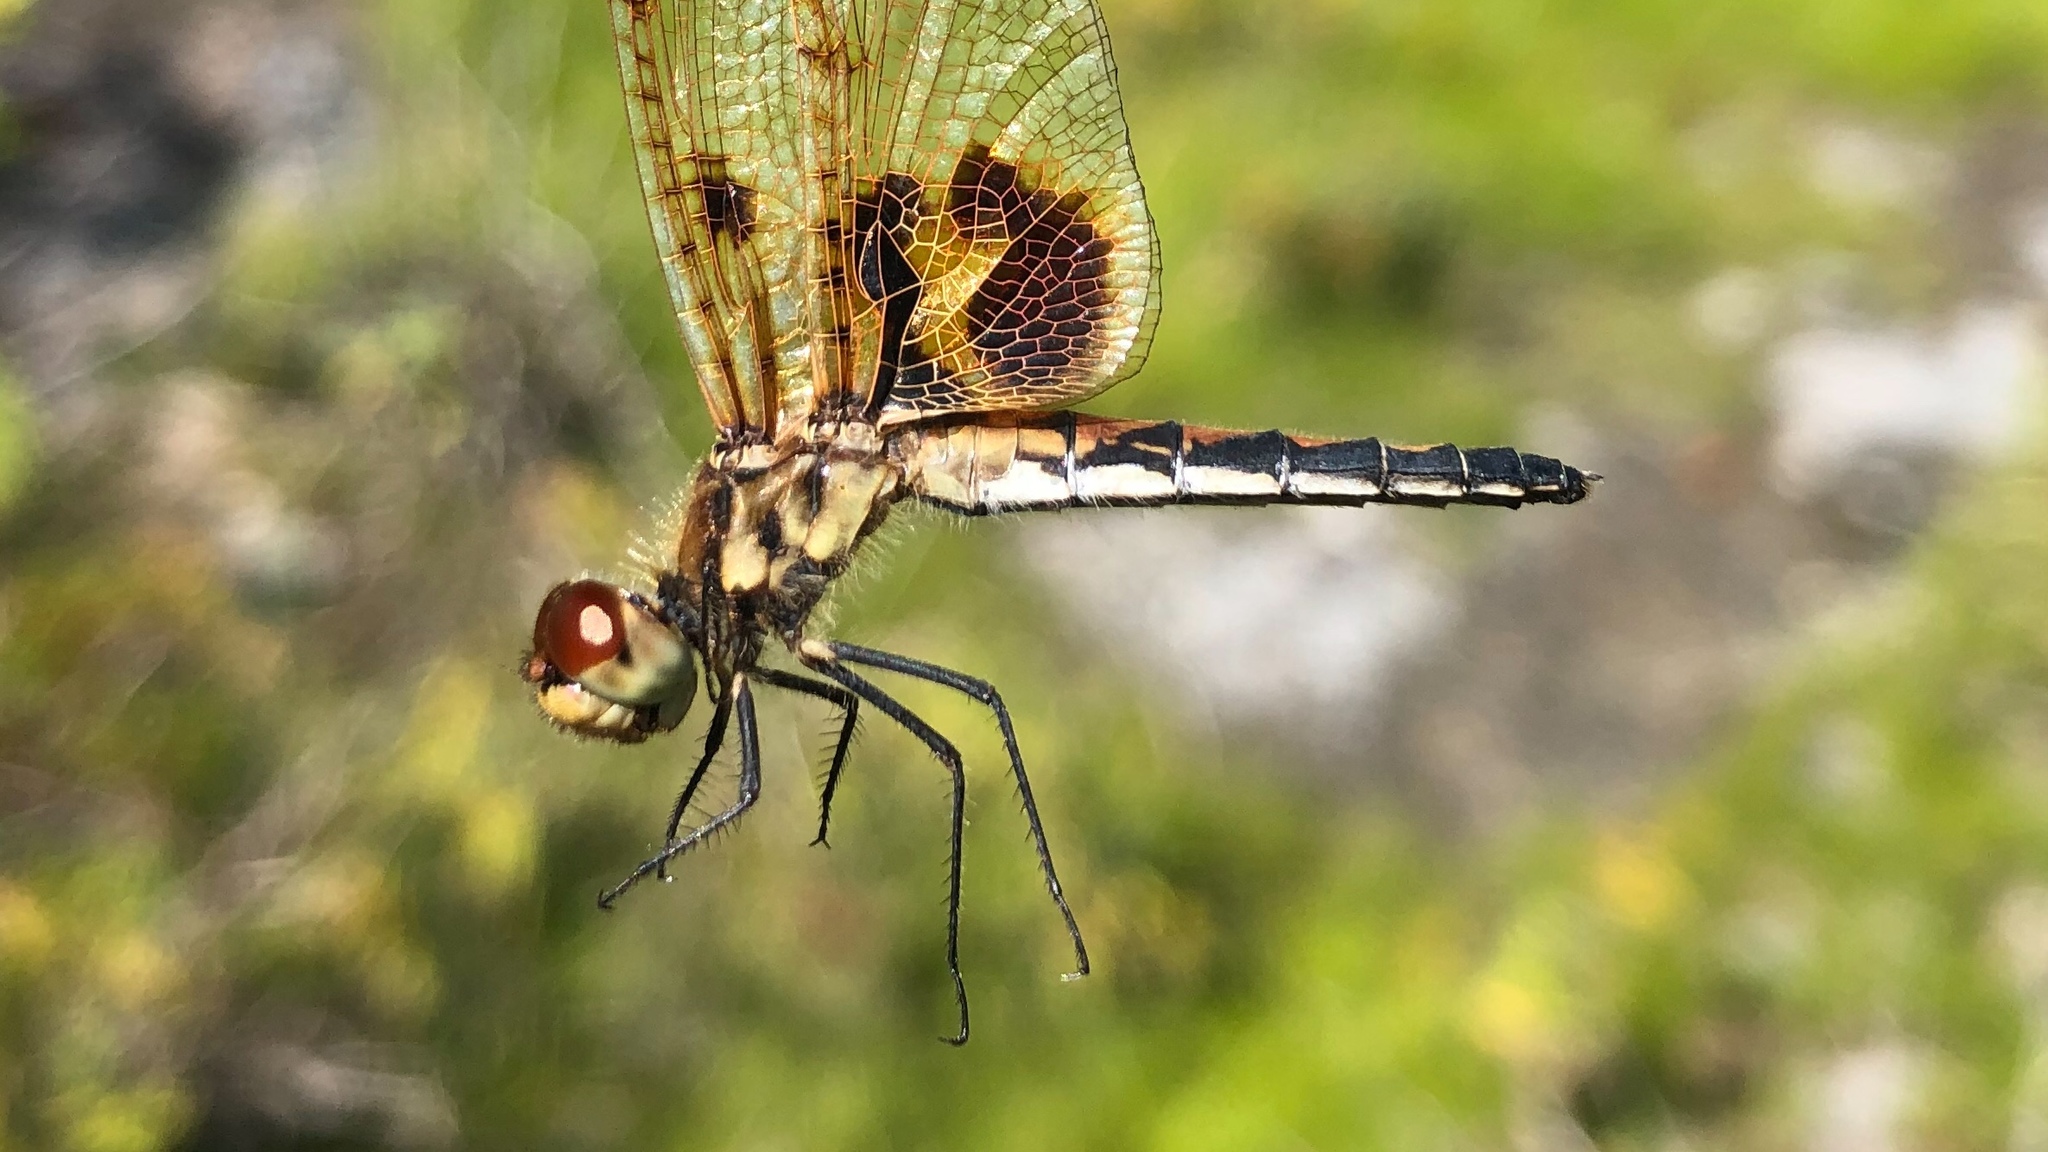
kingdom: Animalia
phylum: Arthropoda
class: Insecta
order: Odonata
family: Libellulidae
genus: Celithemis
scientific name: Celithemis elisa
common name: Calico pennant
